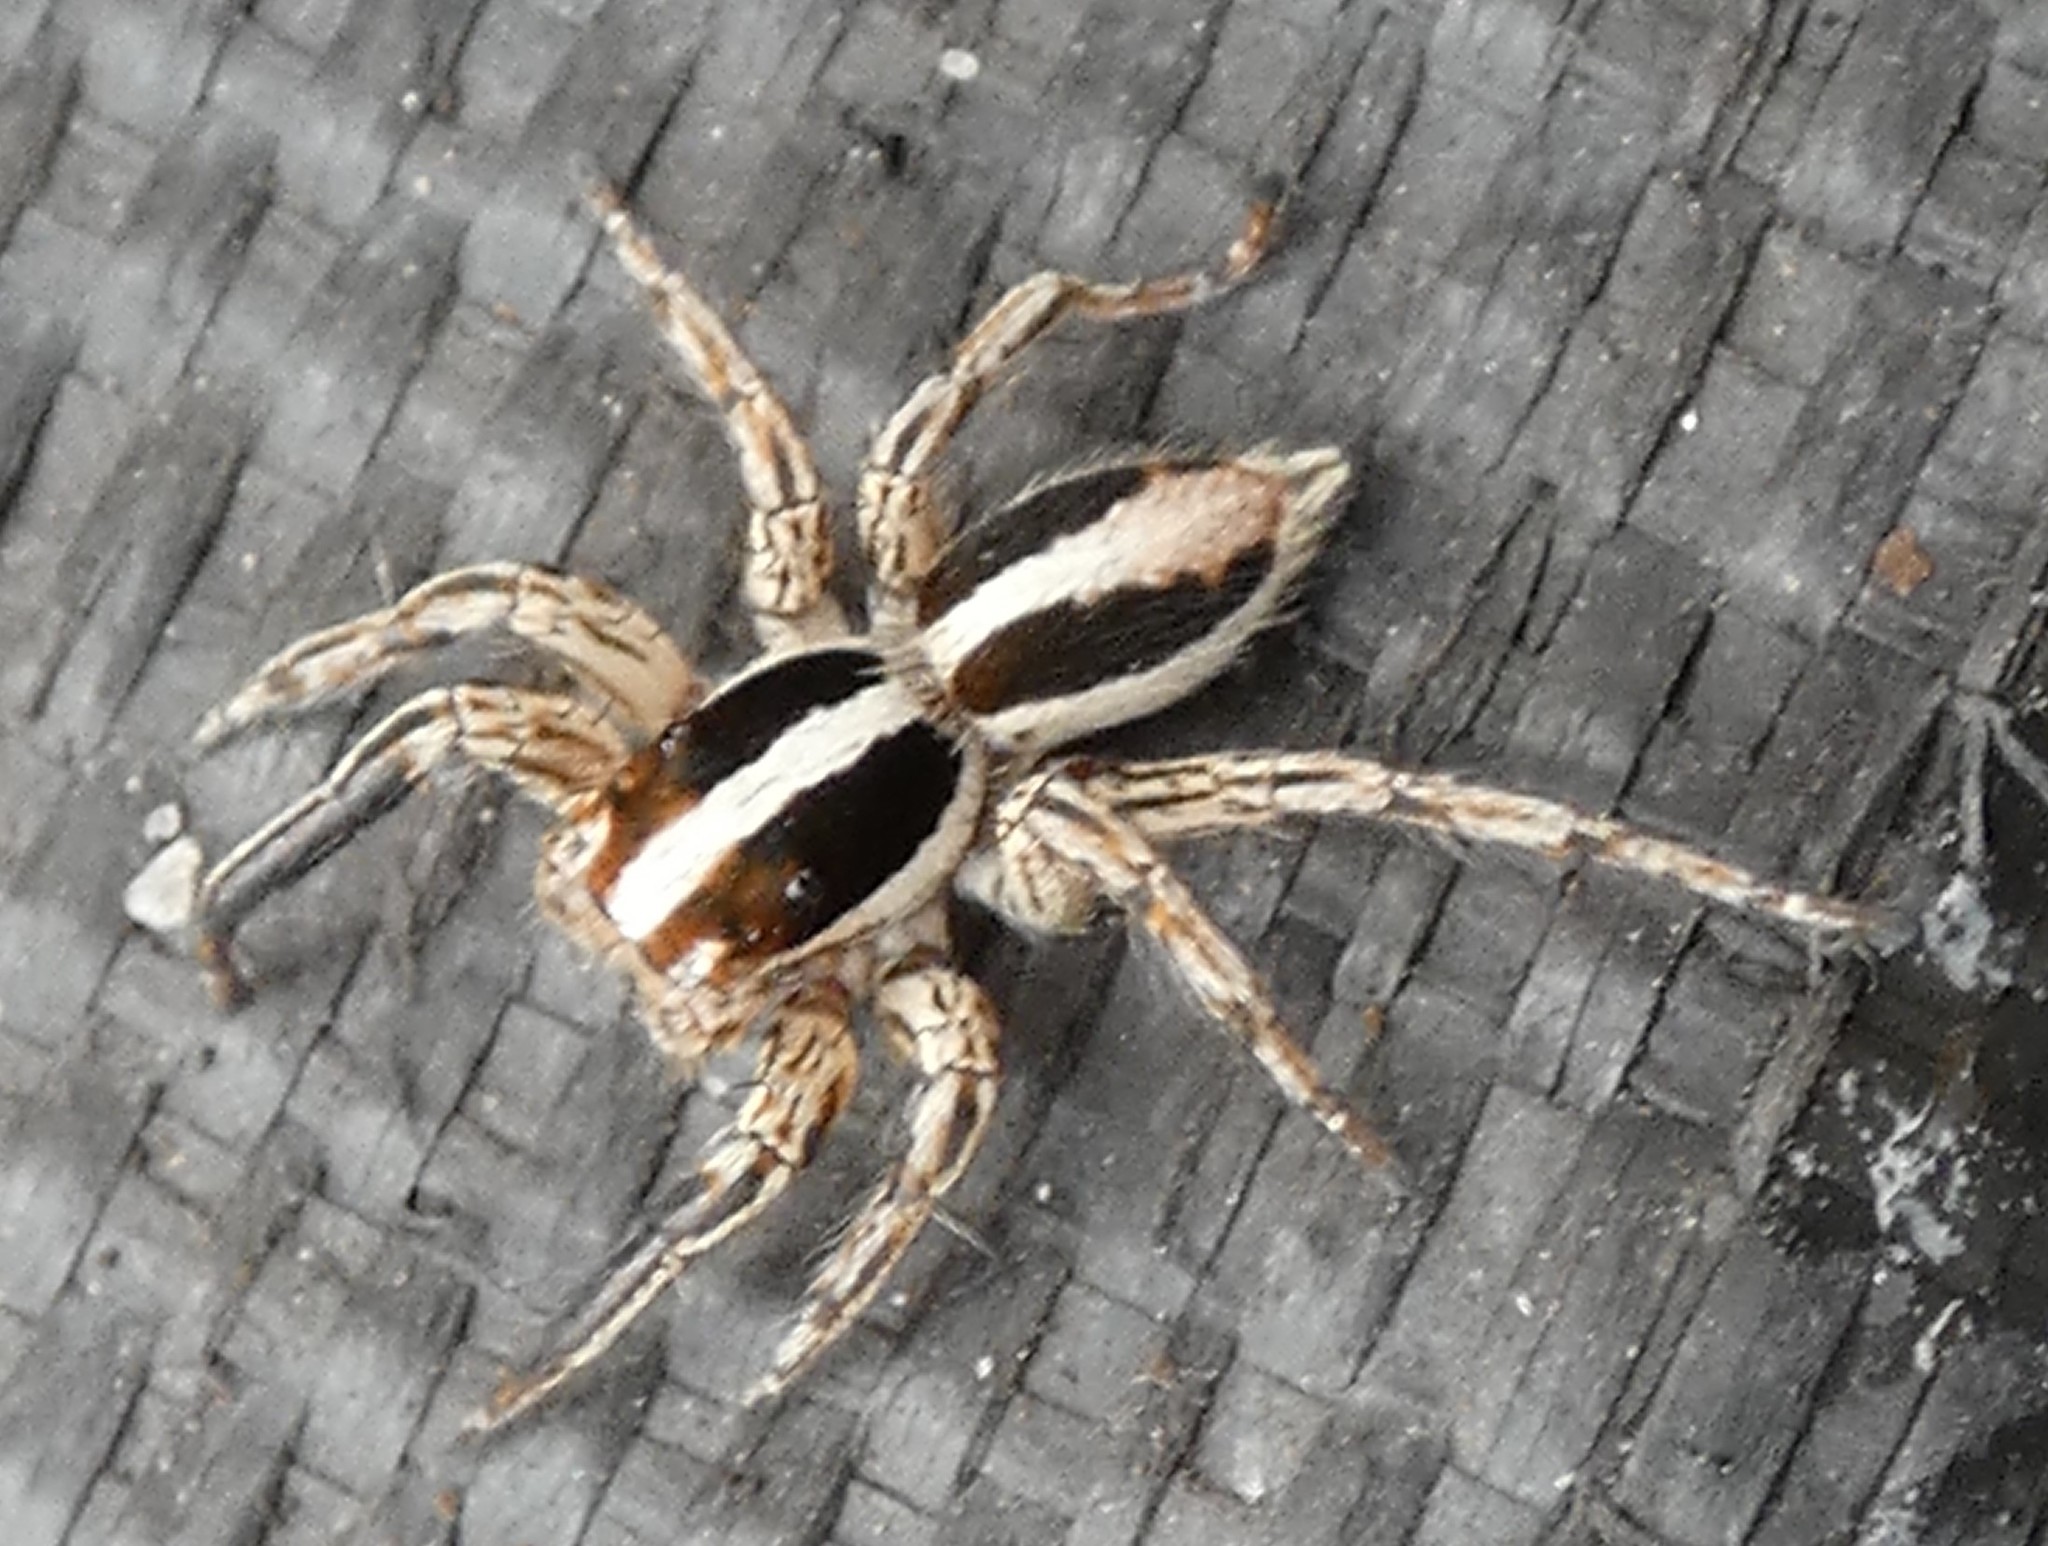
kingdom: Animalia
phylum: Arthropoda
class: Arachnida
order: Araneae
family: Salticidae
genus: Plexippus
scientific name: Plexippus paykulli
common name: Pantropical jumper
